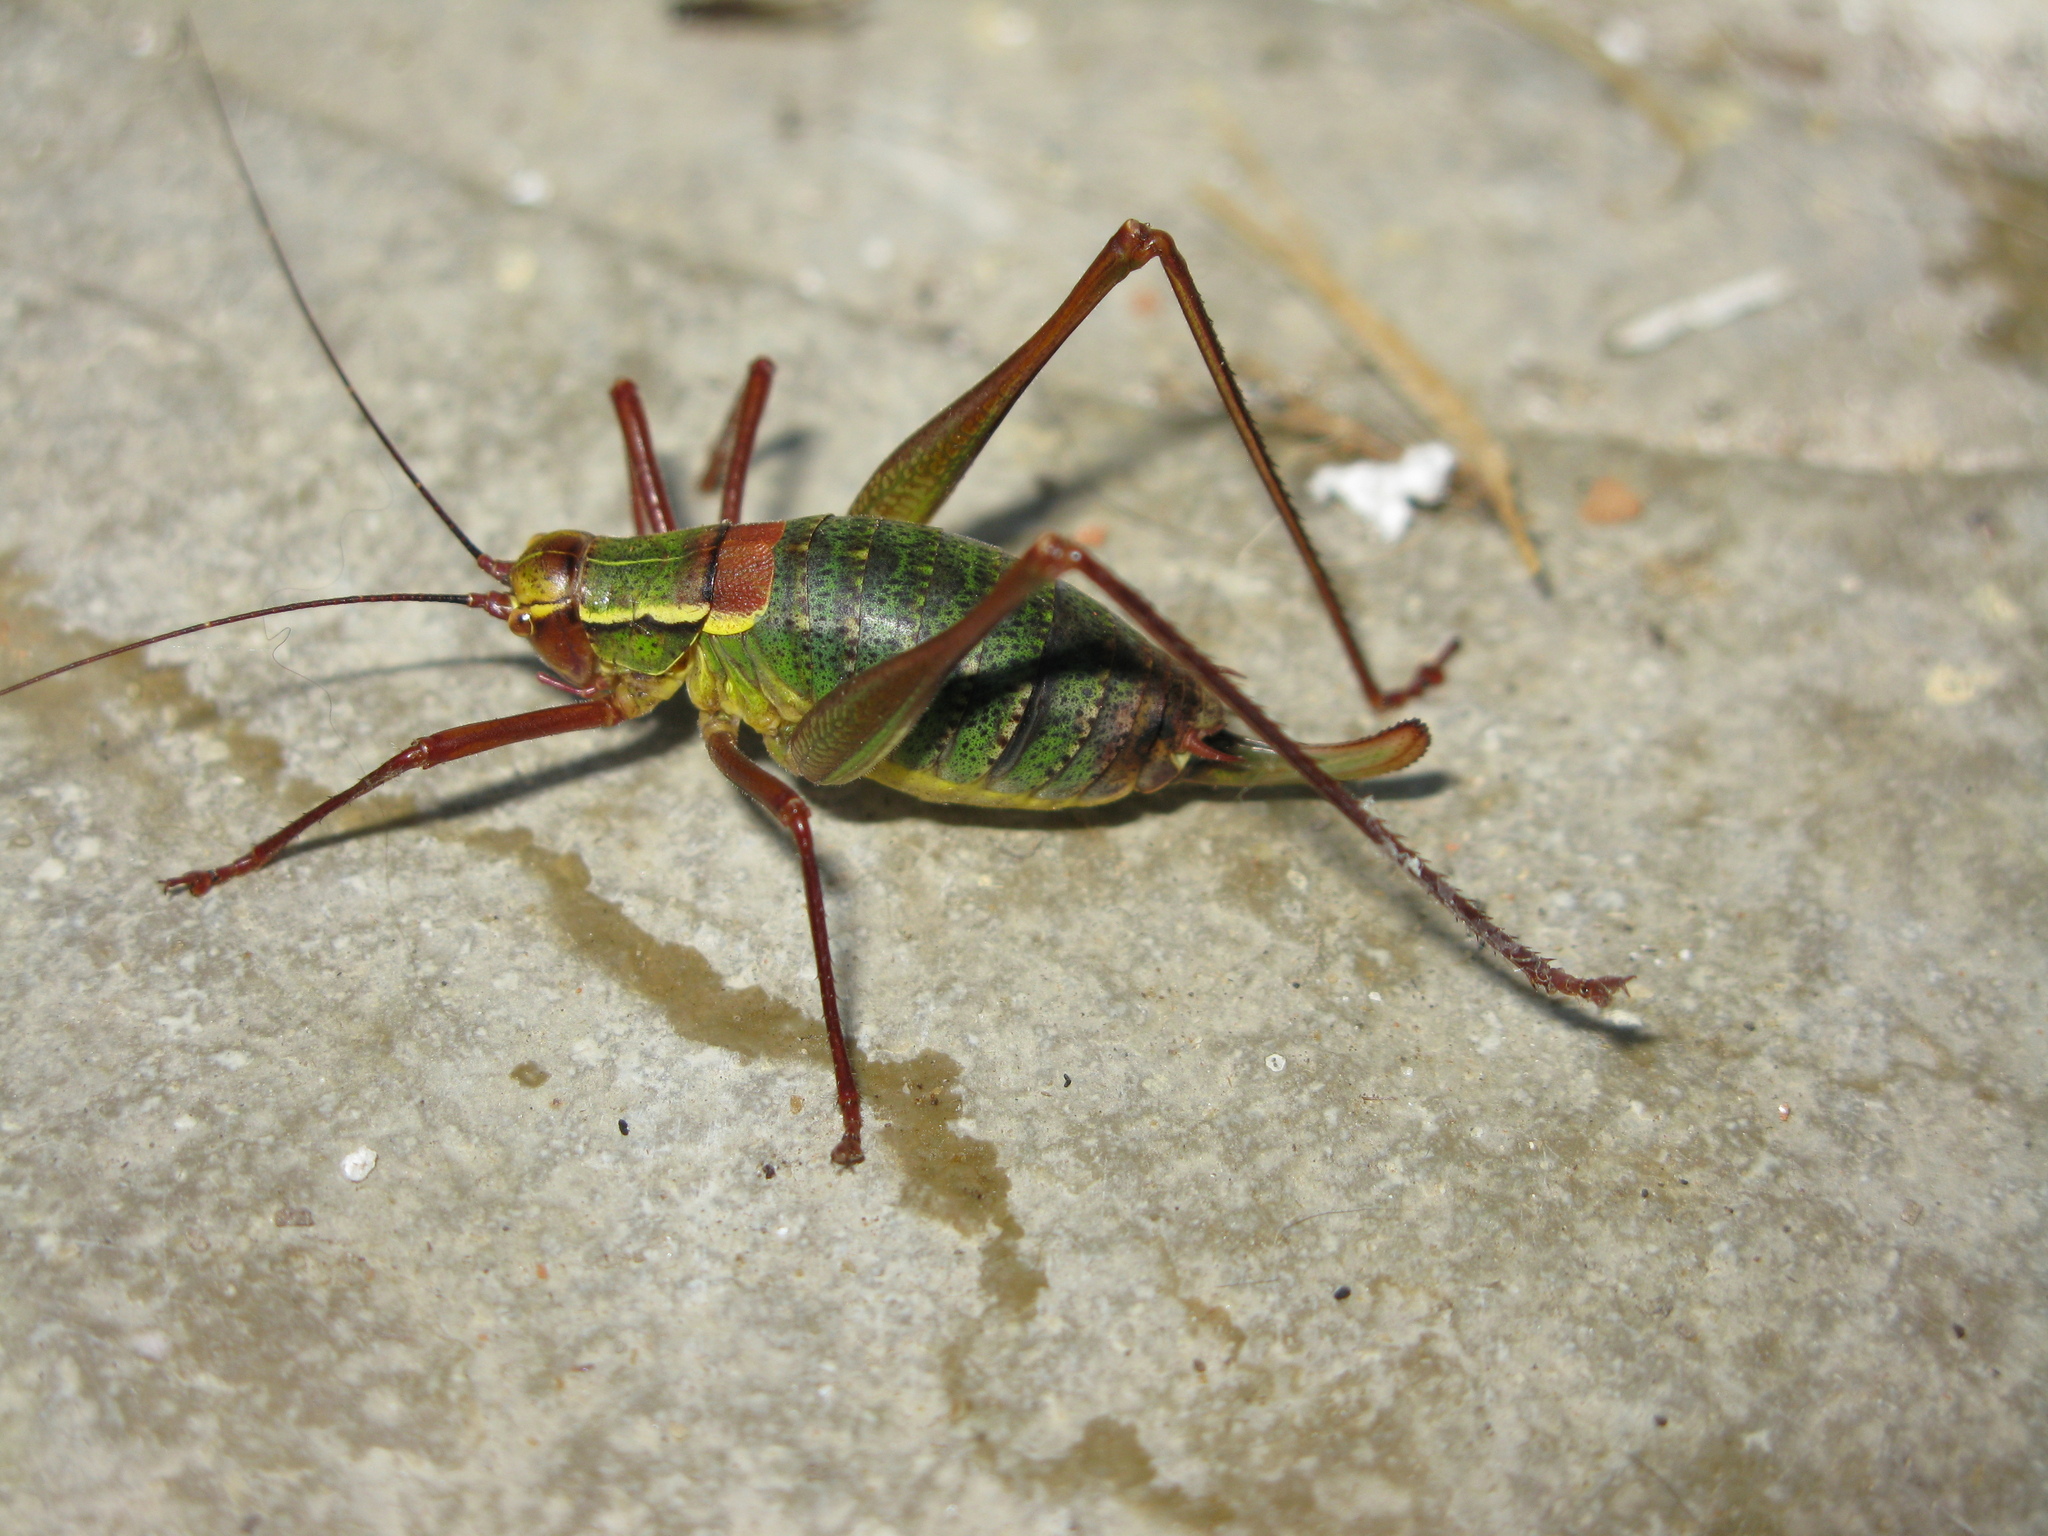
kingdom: Animalia
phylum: Arthropoda
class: Insecta
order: Orthoptera
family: Tettigoniidae
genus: Barbitistes
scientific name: Barbitistes serricauda
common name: Saw-tailed bush-cricket
